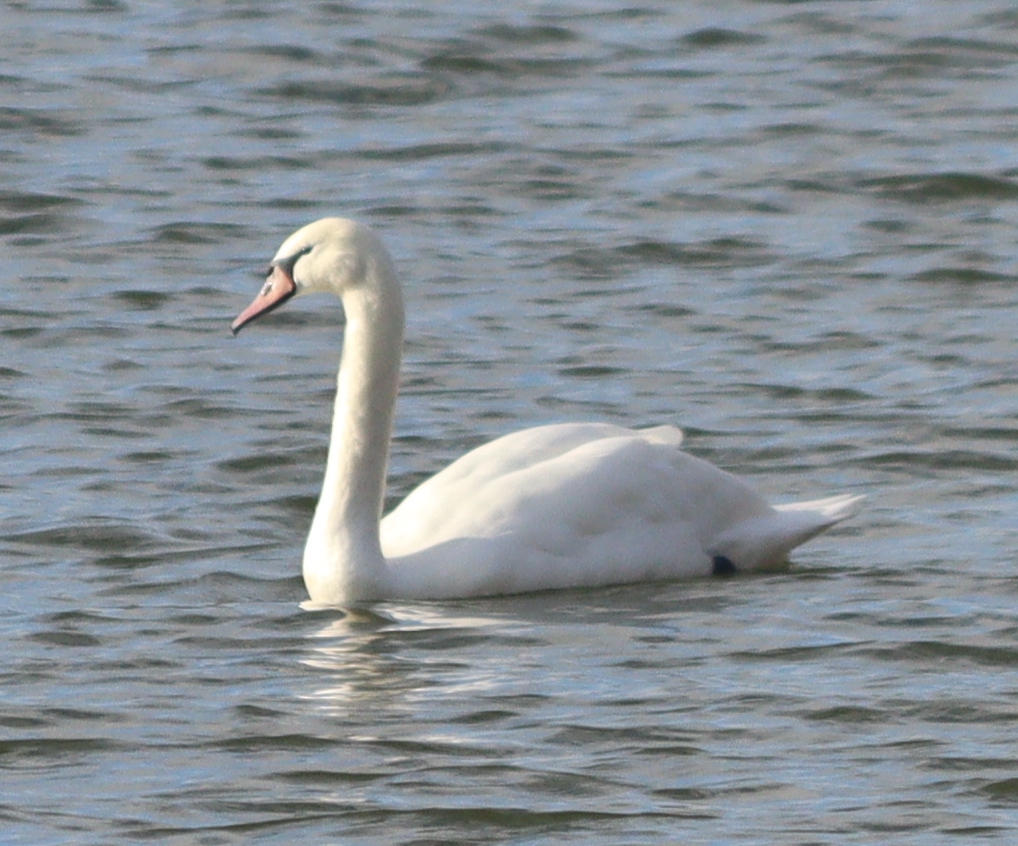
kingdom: Animalia
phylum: Chordata
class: Aves
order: Anseriformes
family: Anatidae
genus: Cygnus
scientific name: Cygnus olor
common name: Mute swan
